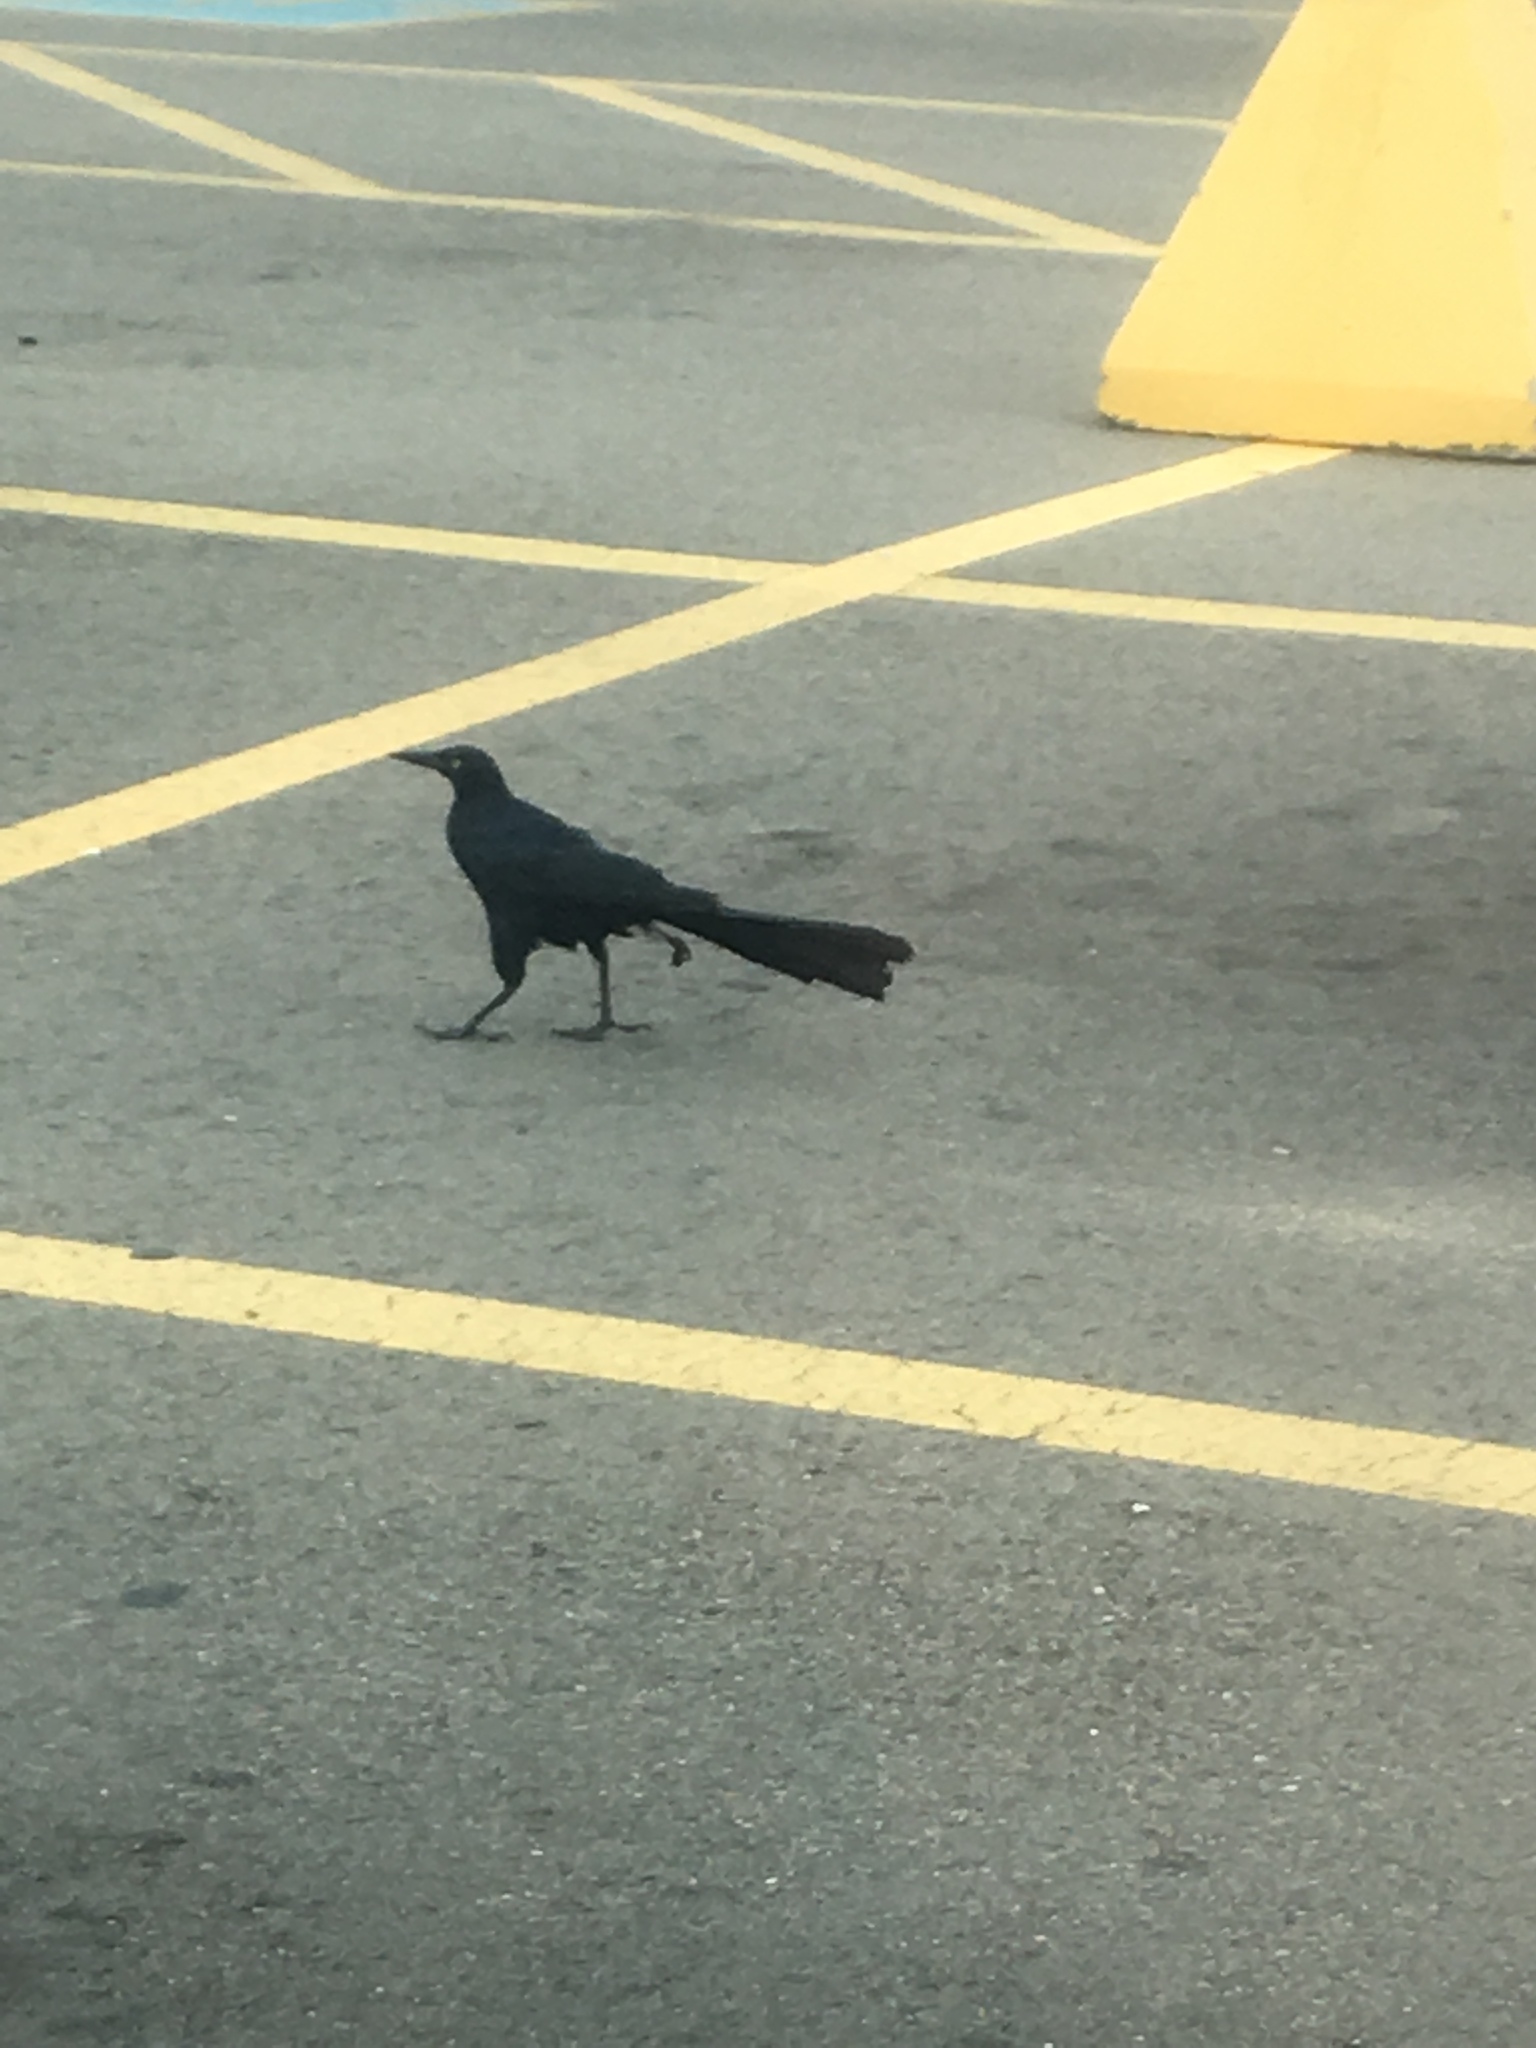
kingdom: Animalia
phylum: Chordata
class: Aves
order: Passeriformes
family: Icteridae
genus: Quiscalus
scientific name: Quiscalus mexicanus
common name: Great-tailed grackle
